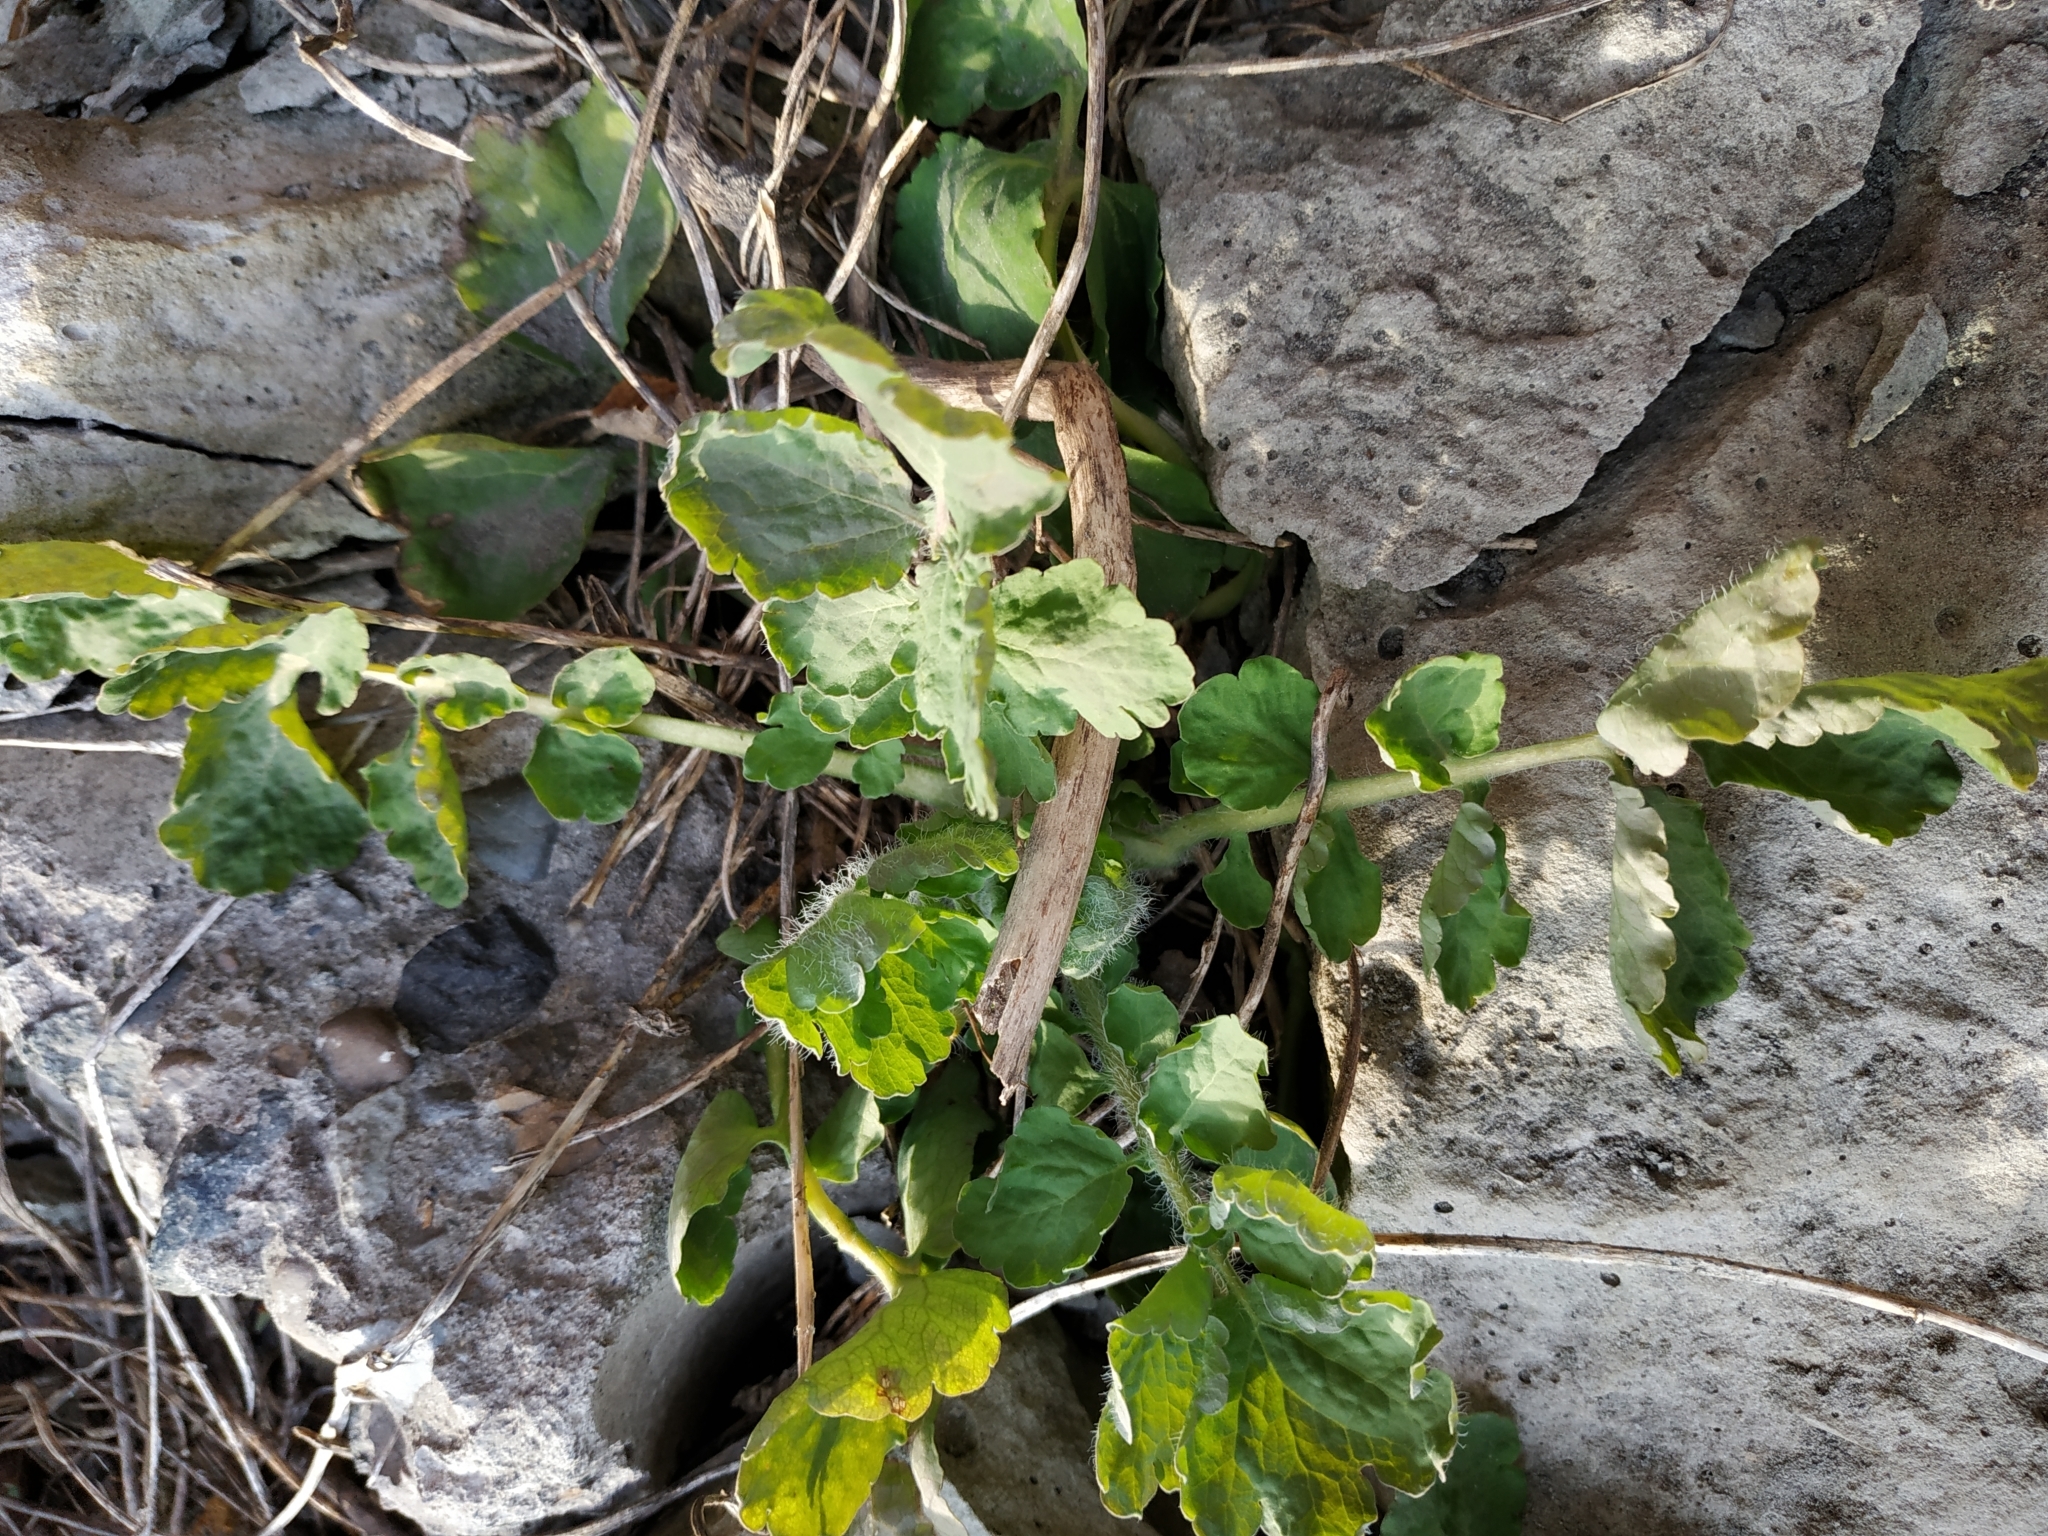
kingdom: Plantae
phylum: Tracheophyta
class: Magnoliopsida
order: Ranunculales
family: Papaveraceae
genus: Chelidonium
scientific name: Chelidonium majus
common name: Greater celandine
